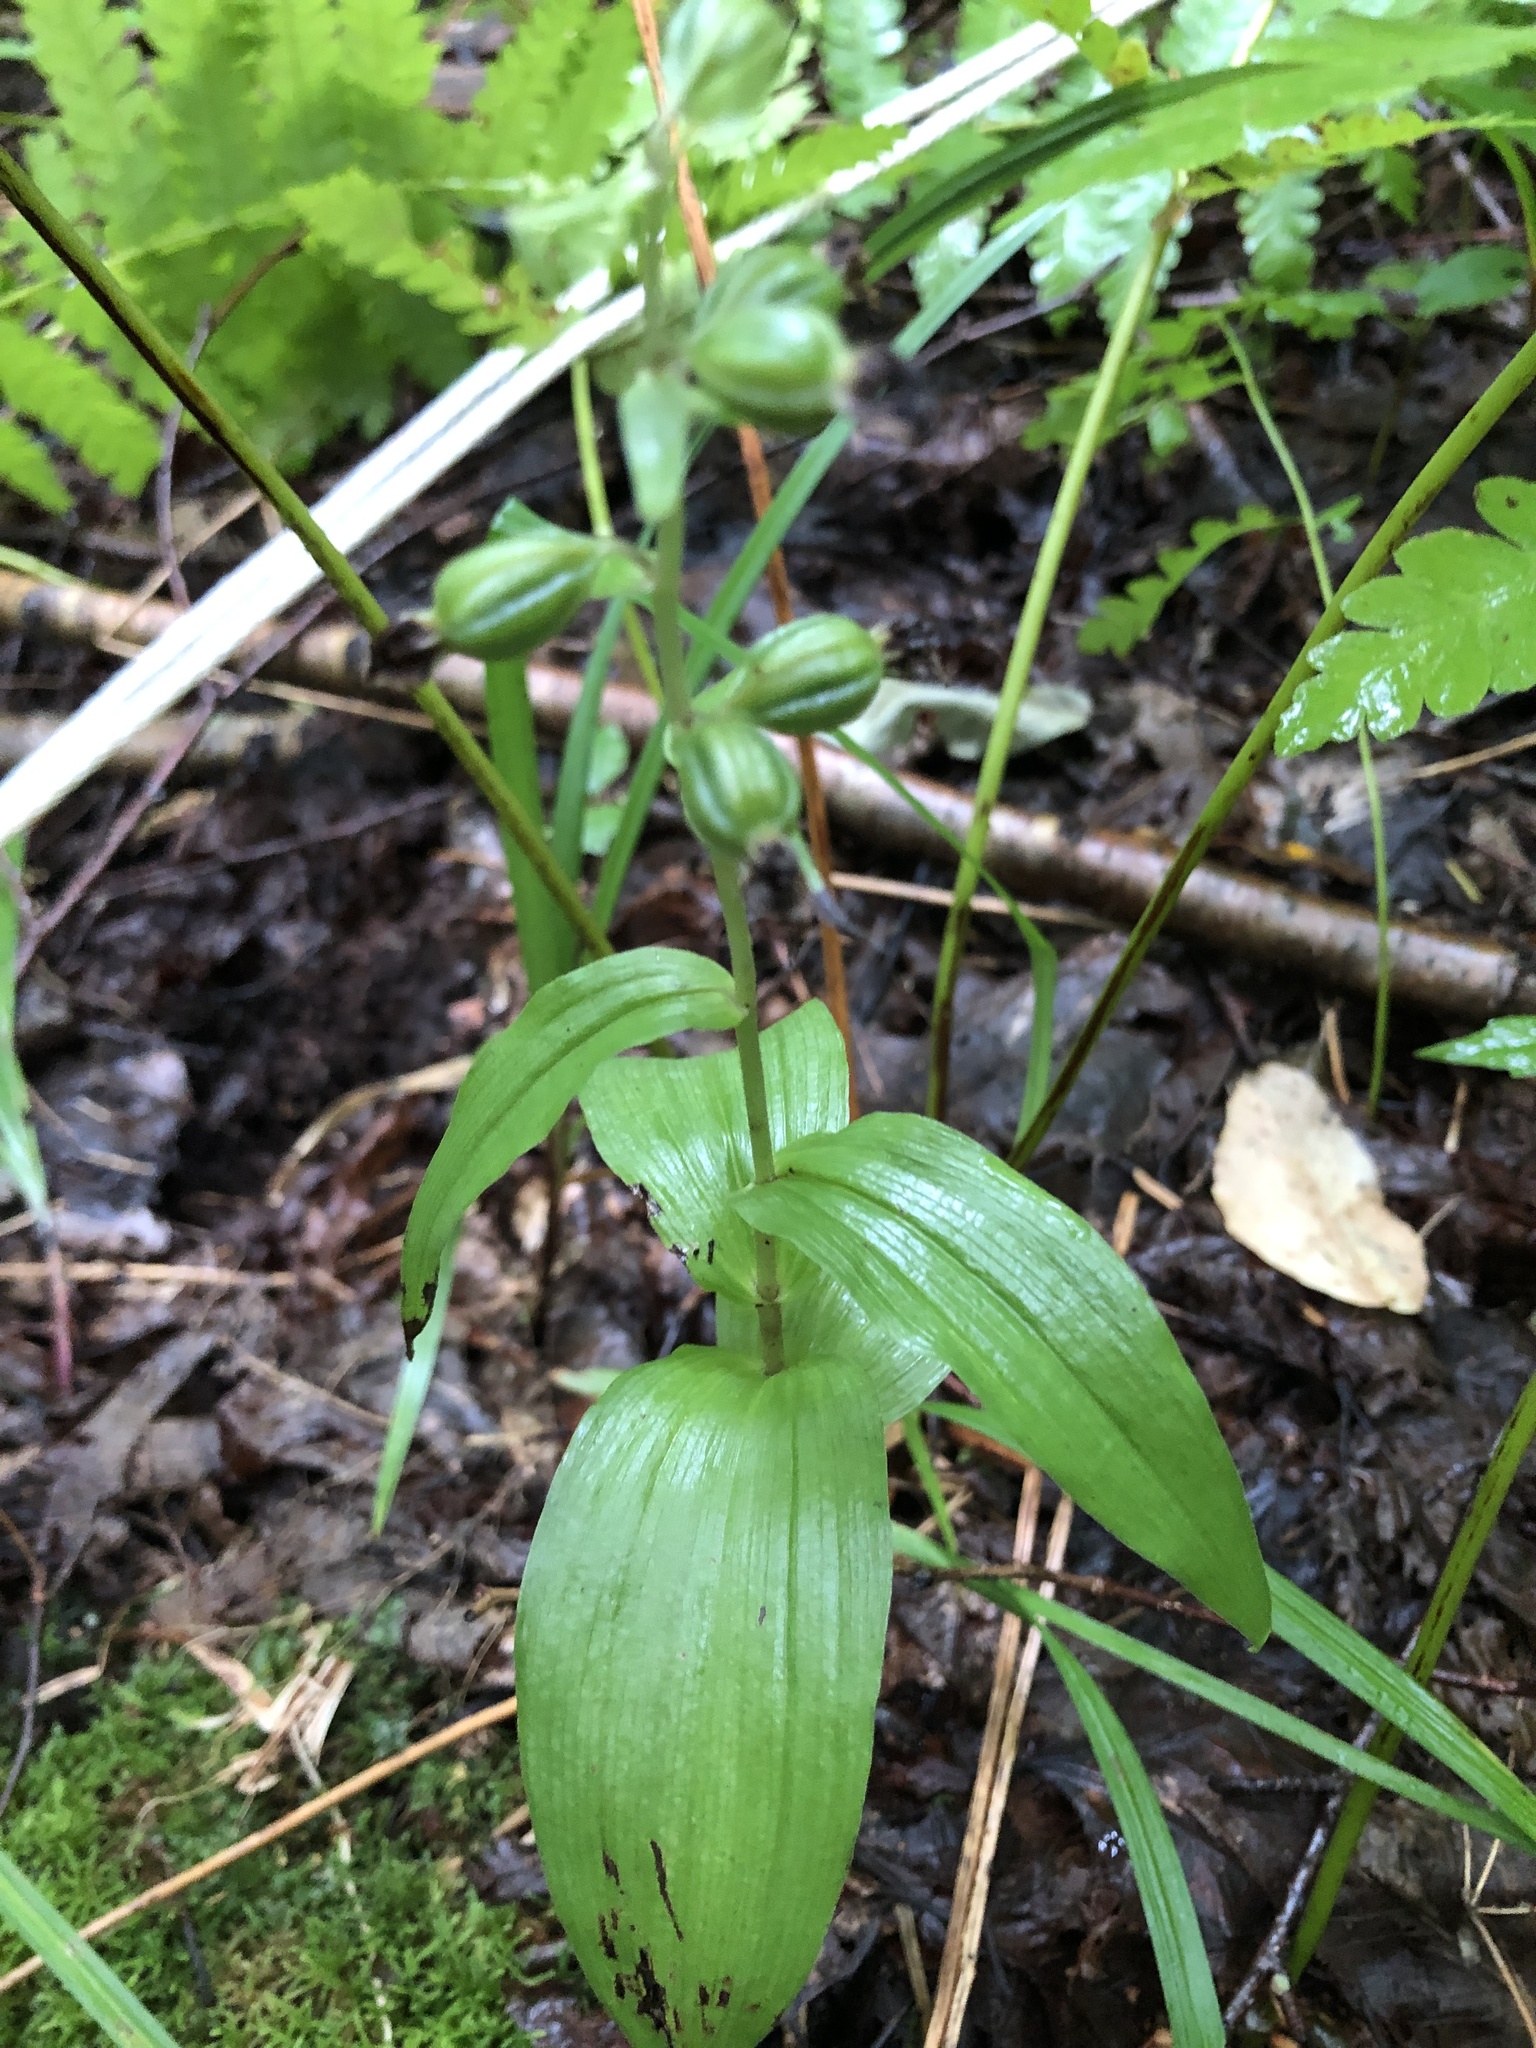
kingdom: Plantae
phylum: Tracheophyta
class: Liliopsida
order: Asparagales
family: Orchidaceae
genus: Epipactis
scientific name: Epipactis helleborine
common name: Broad-leaved helleborine
